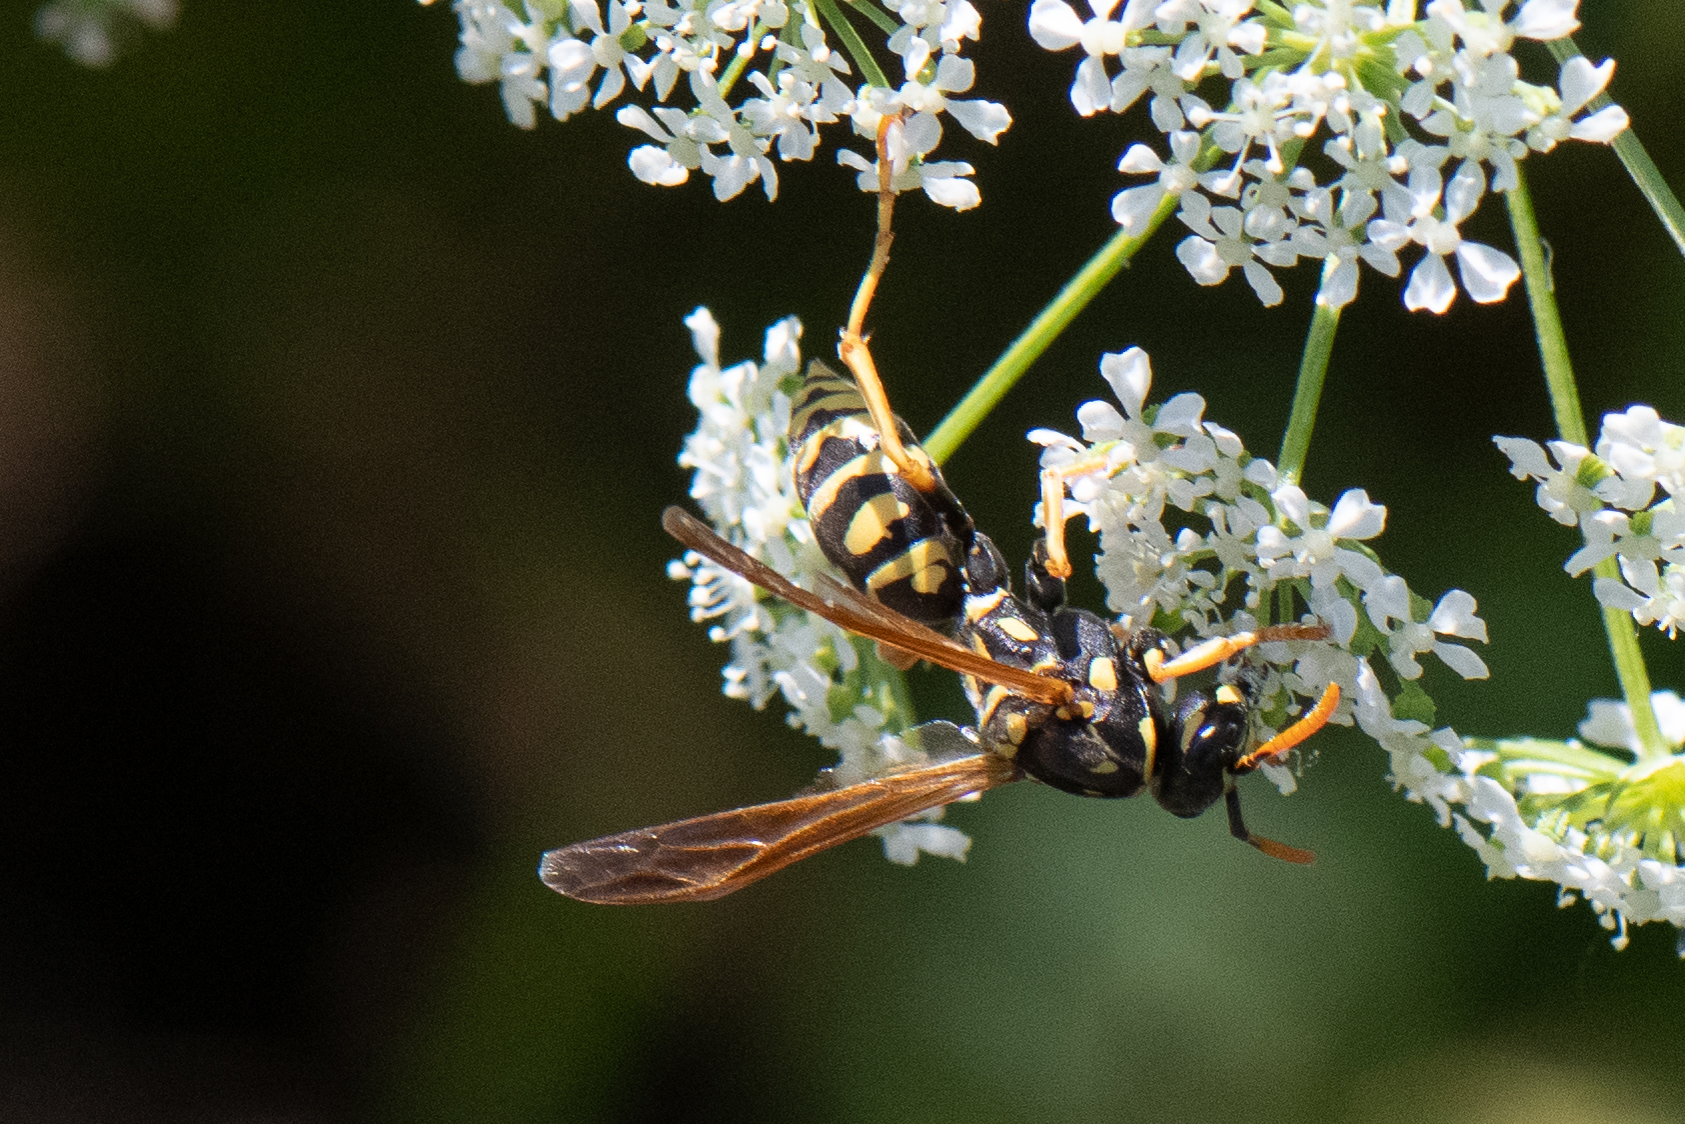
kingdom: Animalia
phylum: Arthropoda
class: Insecta
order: Hymenoptera
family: Eumenidae
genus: Polistes
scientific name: Polistes dominula
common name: Paper wasp
